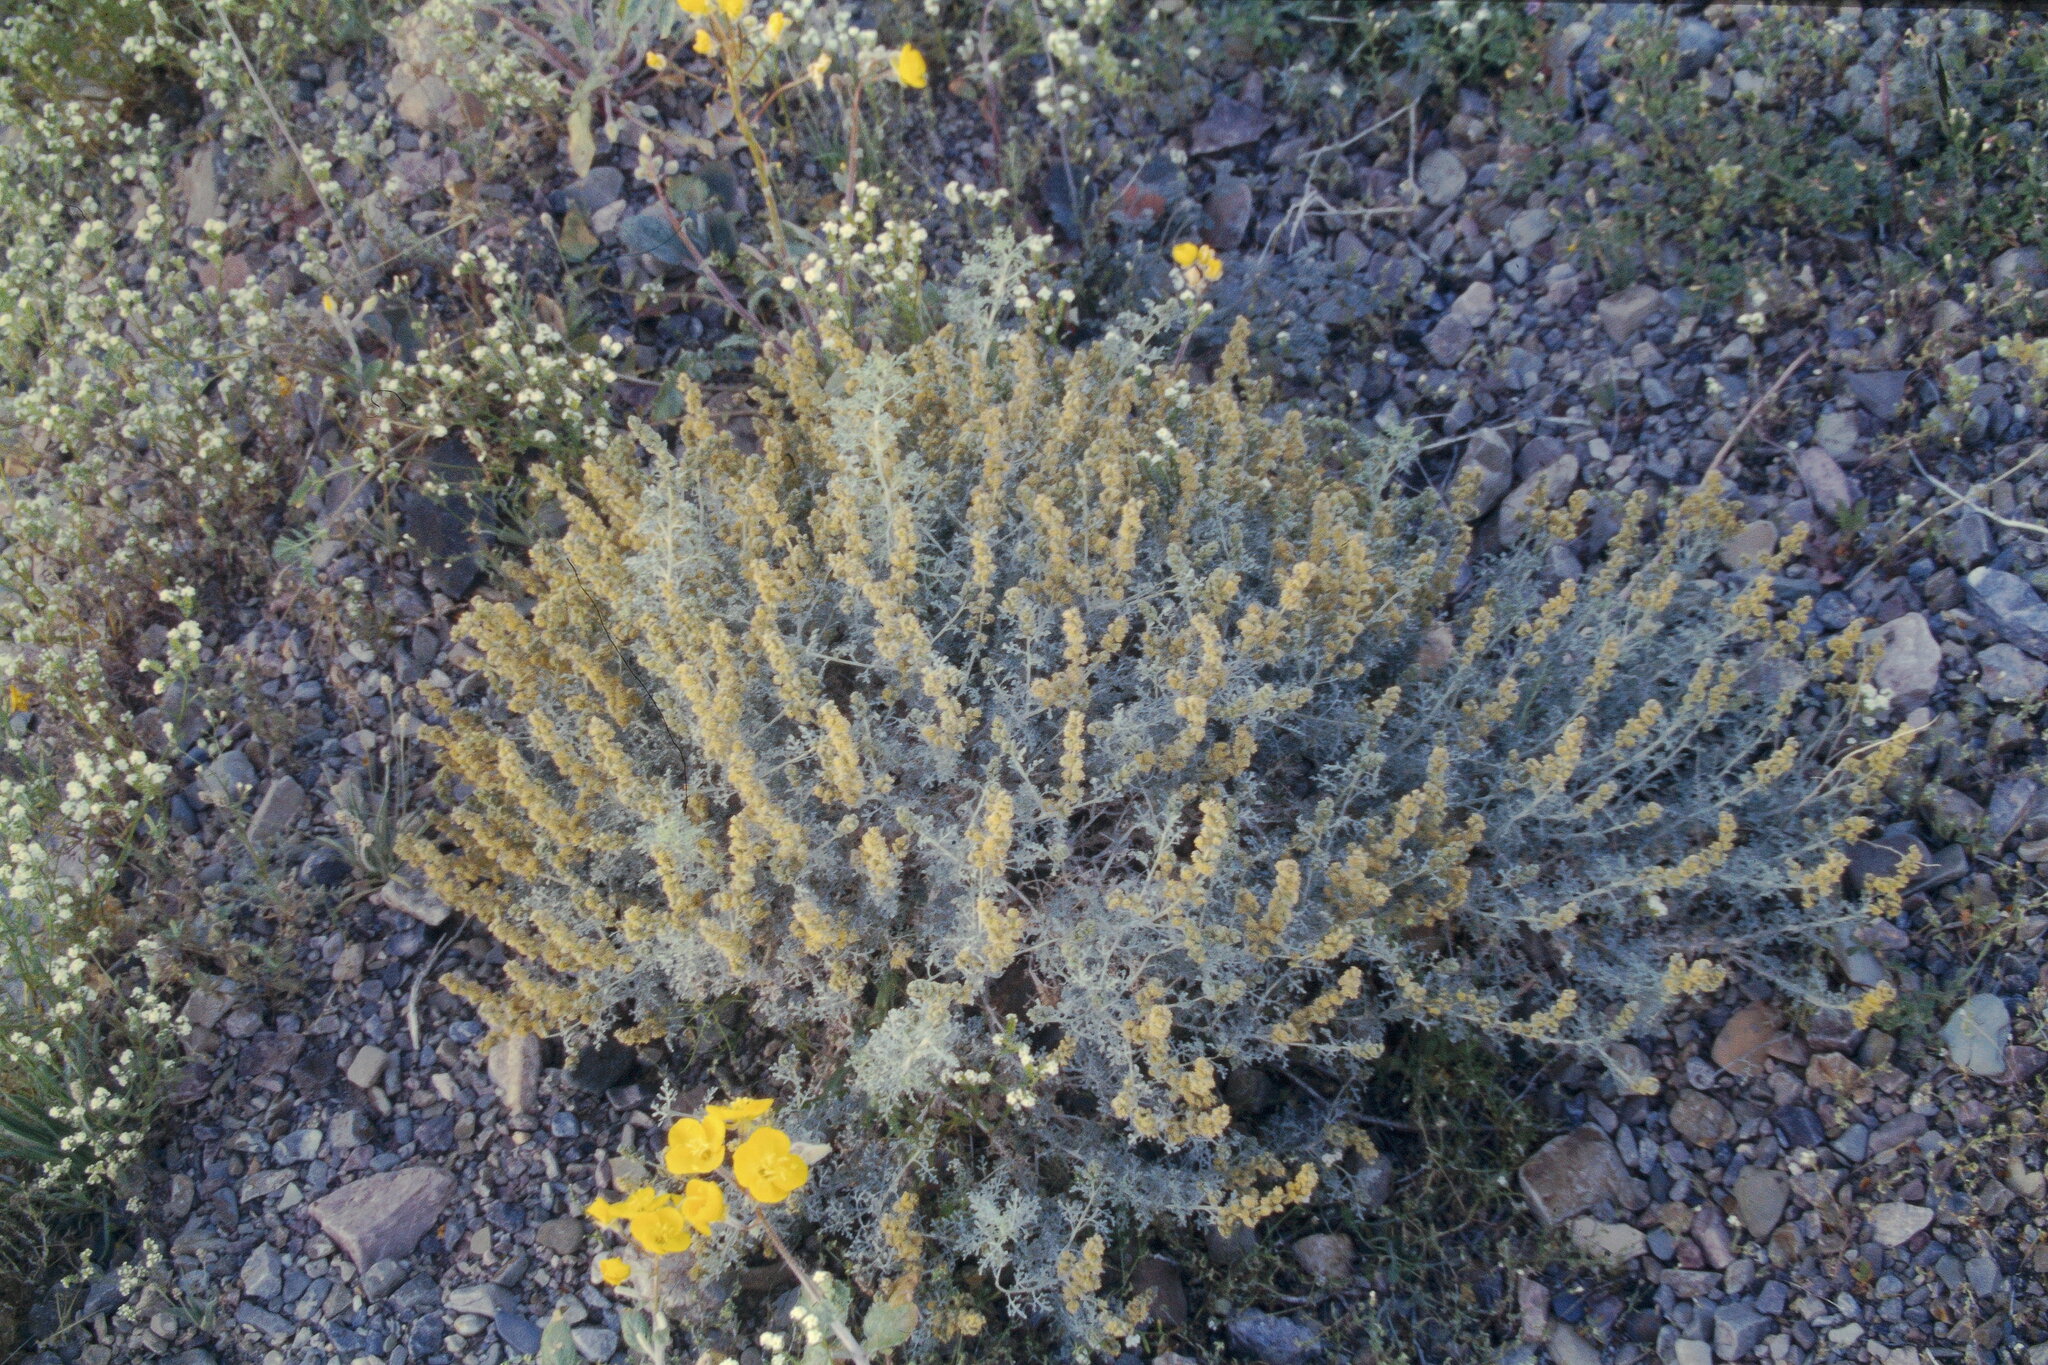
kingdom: Plantae
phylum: Tracheophyta
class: Magnoliopsida
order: Asterales
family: Asteraceae
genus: Ambrosia
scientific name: Ambrosia dumosa
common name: Bur-sage
